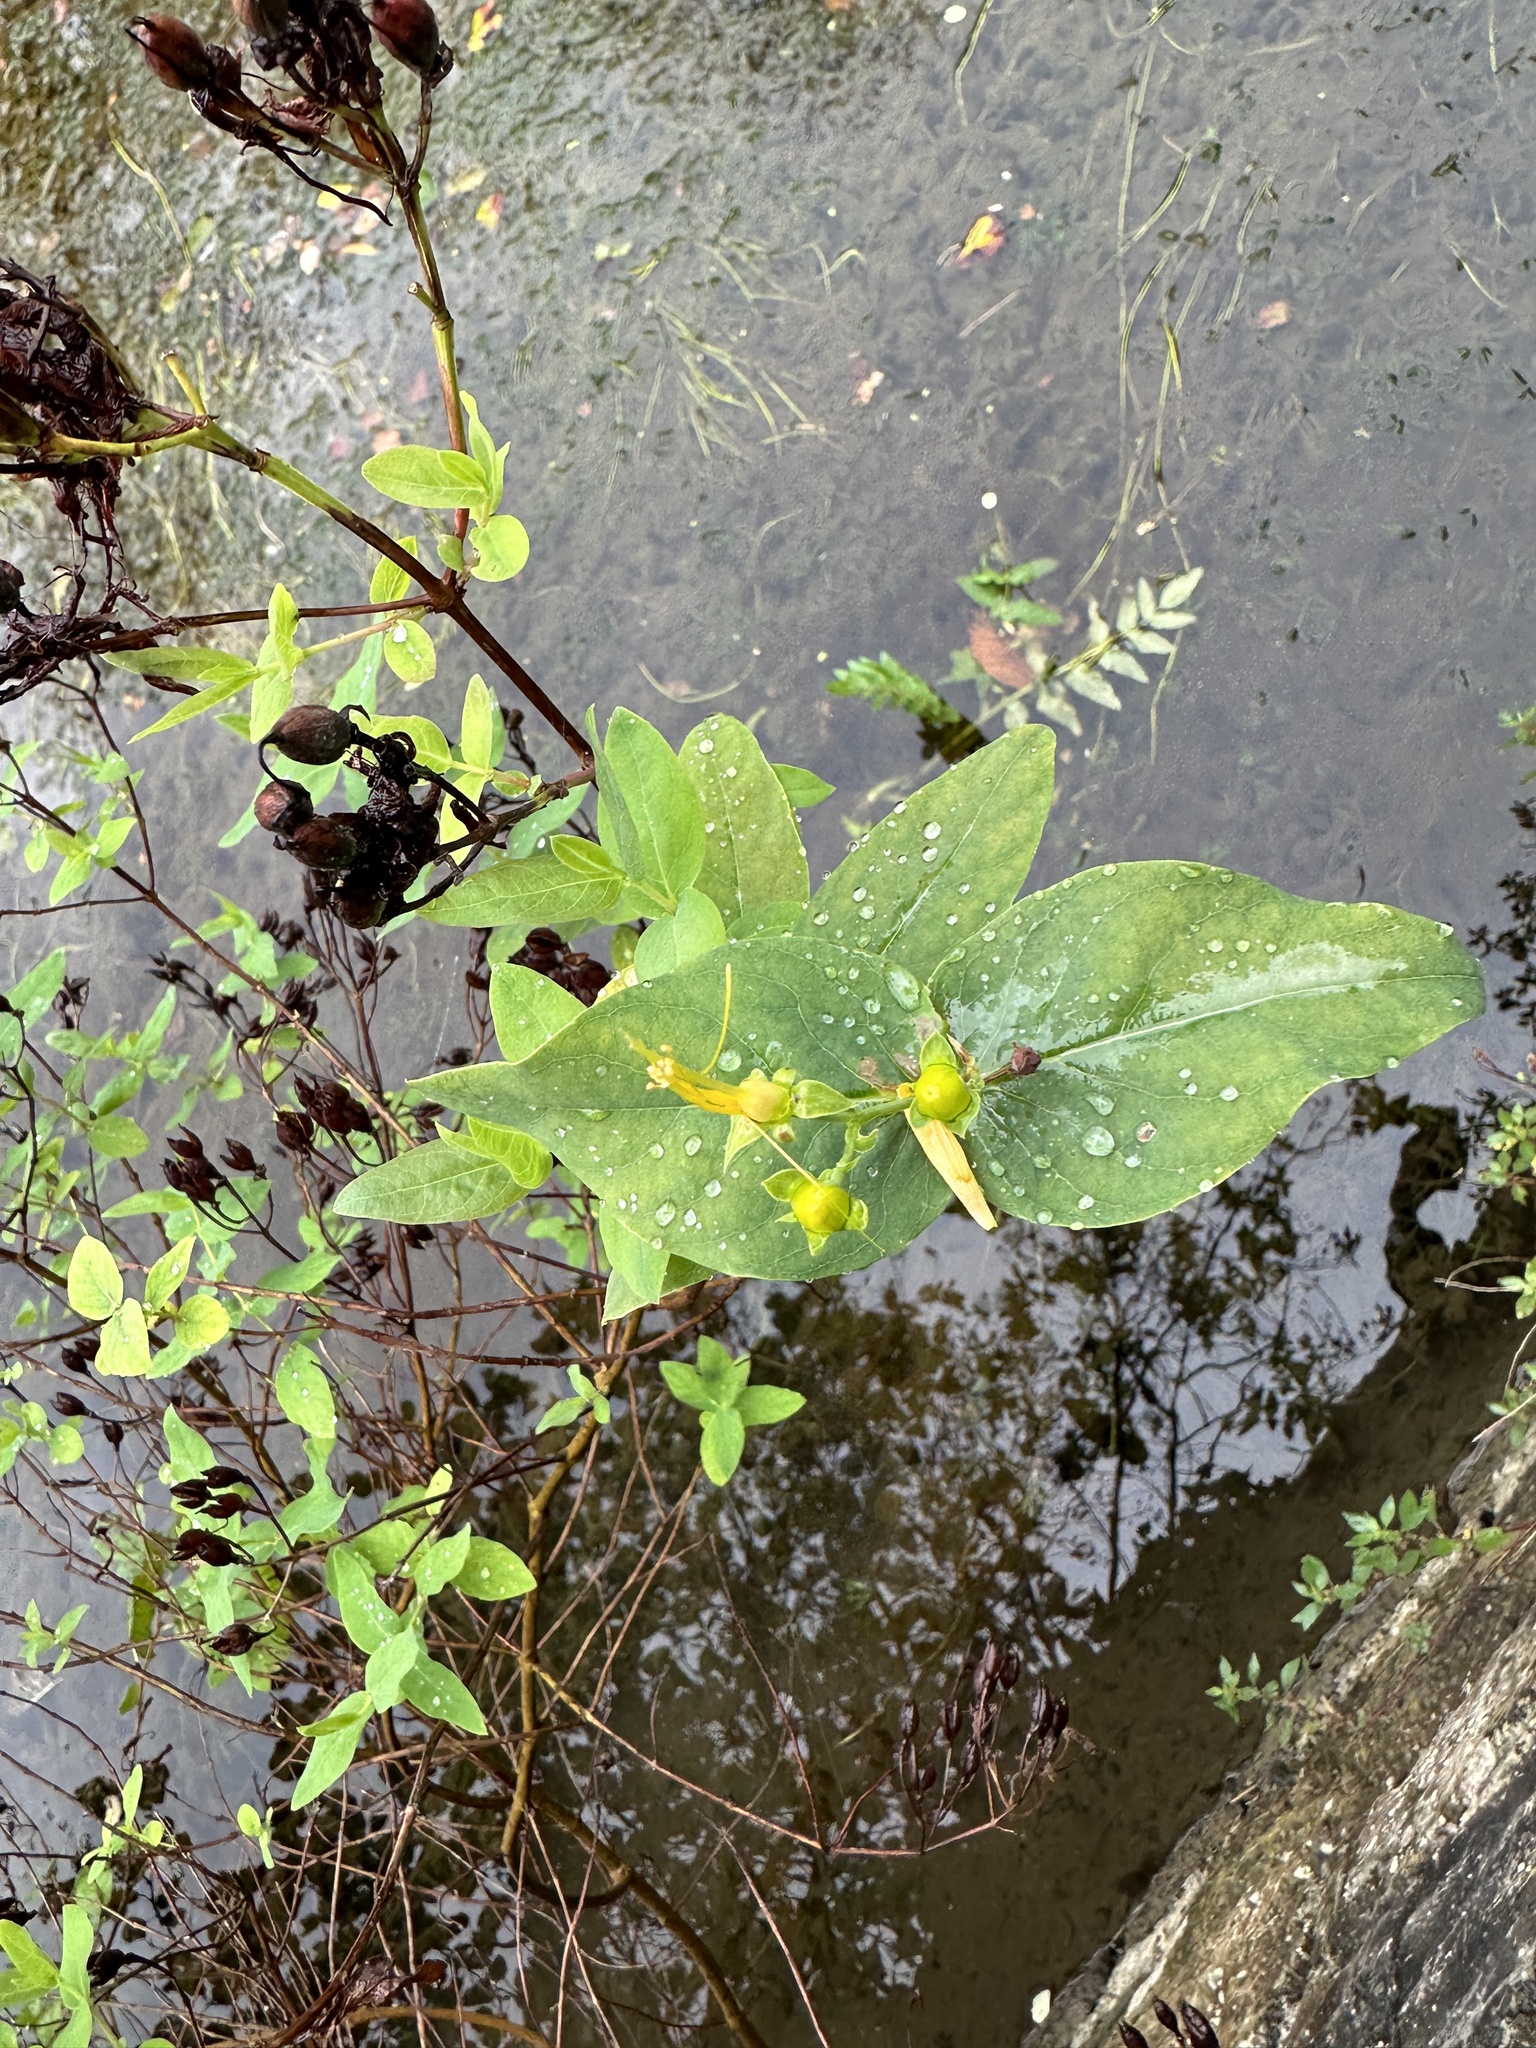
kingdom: Plantae
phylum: Tracheophyta
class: Magnoliopsida
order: Malpighiales
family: Hypericaceae
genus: Hypericum
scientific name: Hypericum hircinum
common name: Stinking tutsan
